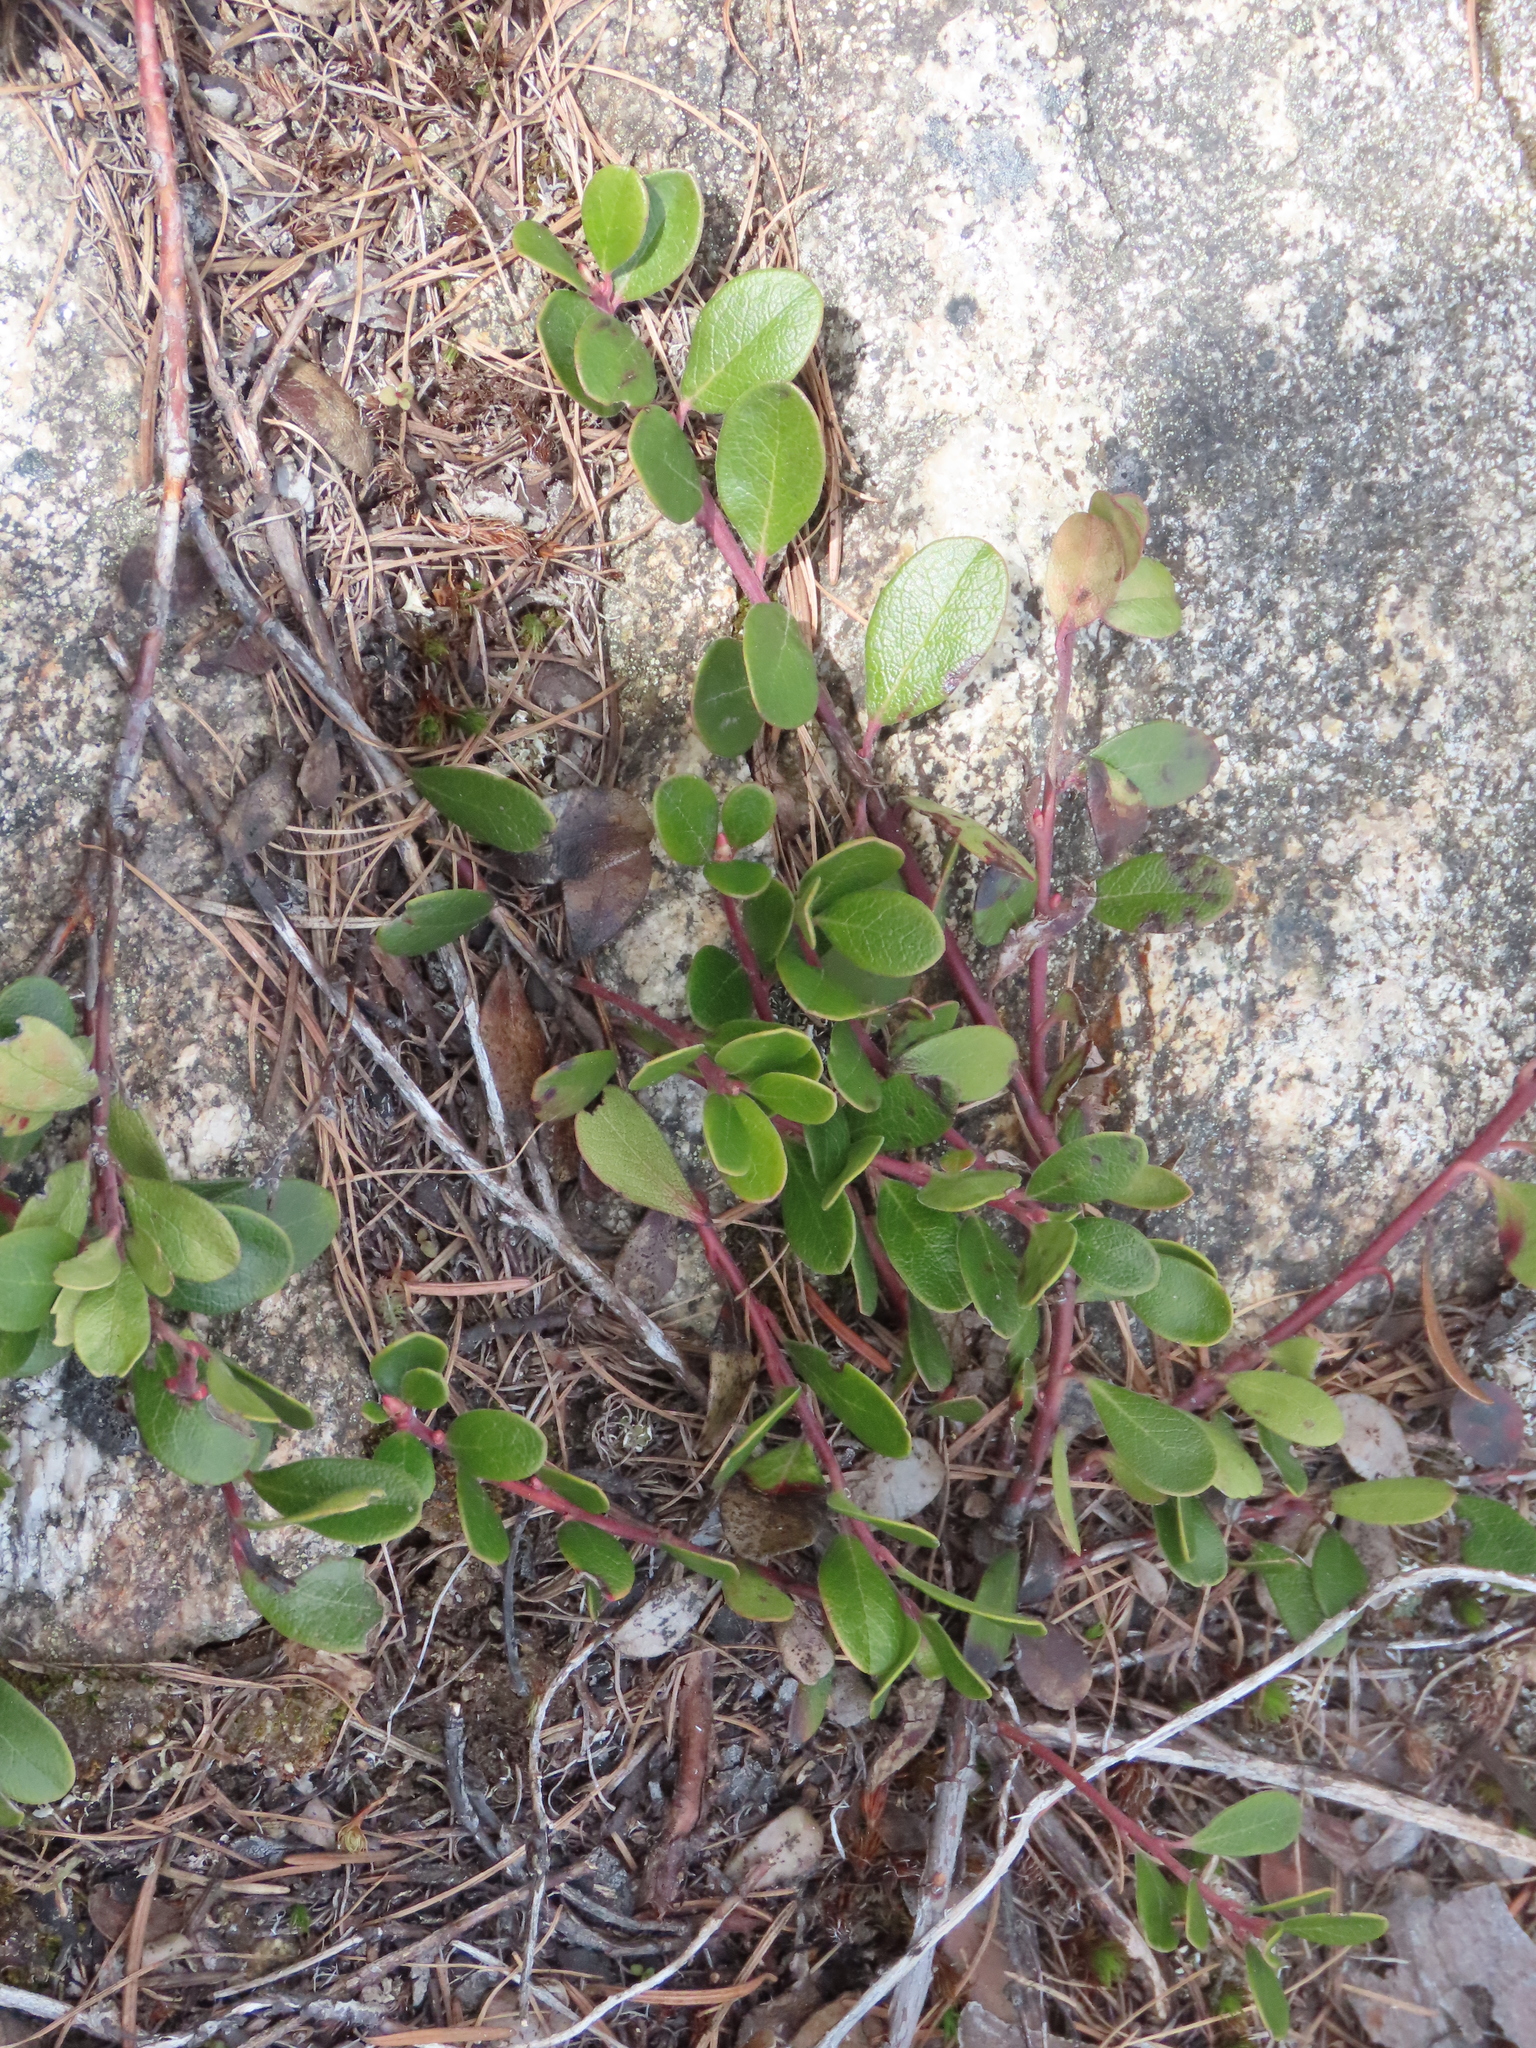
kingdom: Plantae
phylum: Tracheophyta
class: Magnoliopsida
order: Ericales
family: Ericaceae
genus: Arctostaphylos
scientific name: Arctostaphylos uva-ursi
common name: Bearberry
